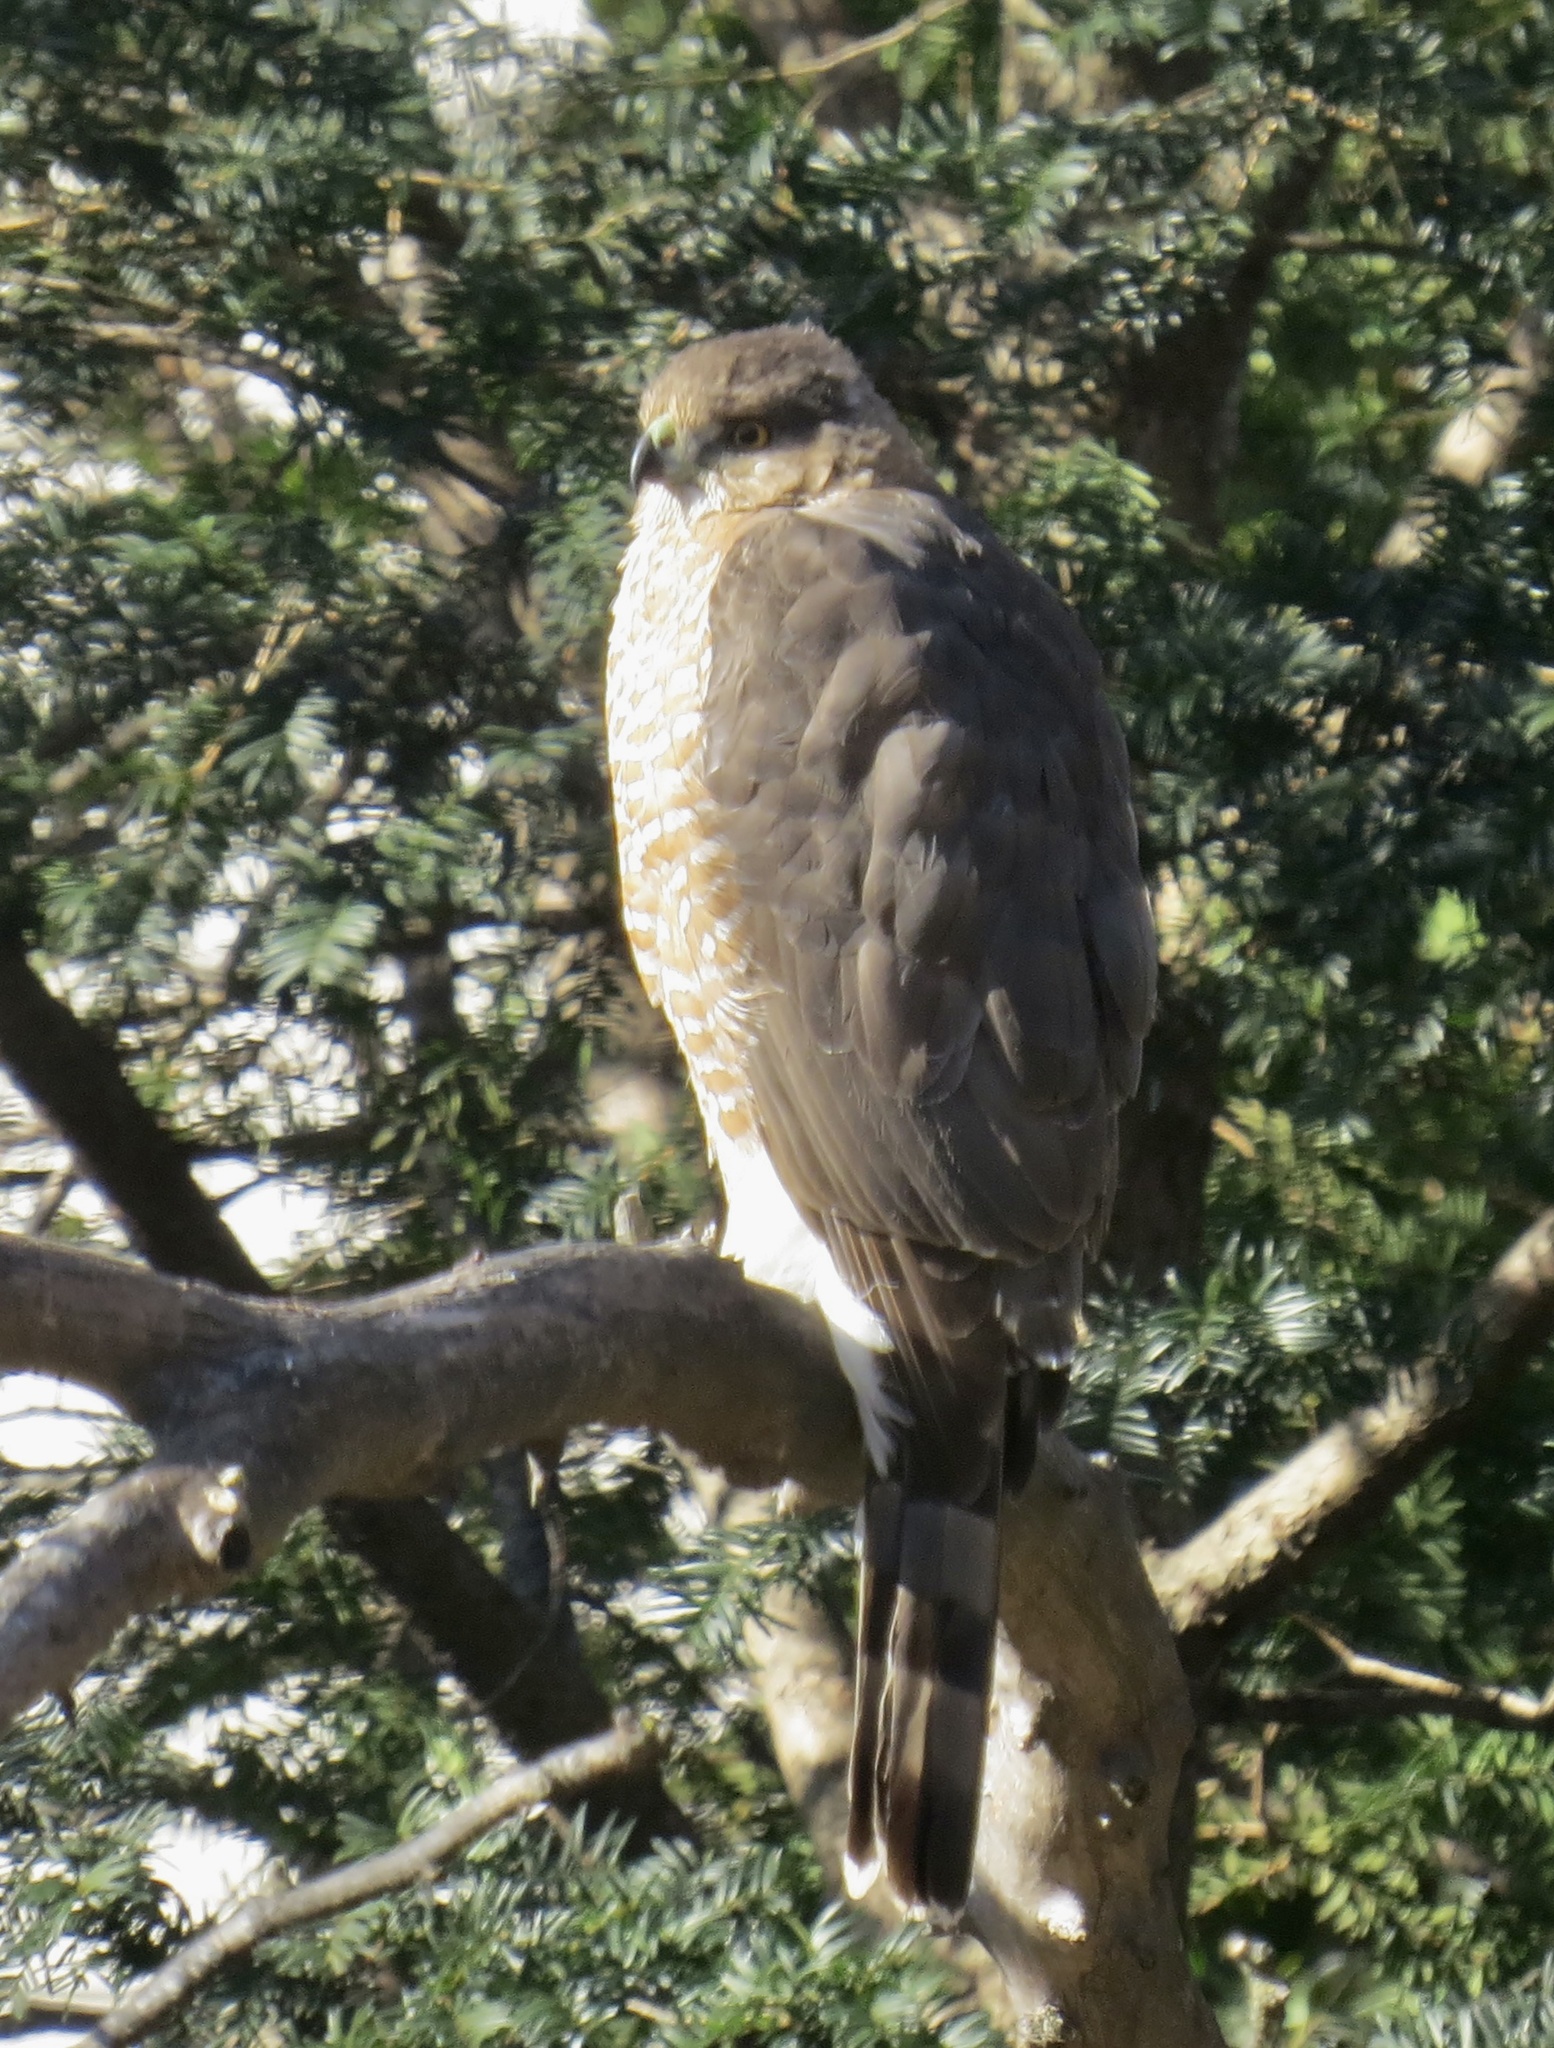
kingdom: Animalia
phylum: Chordata
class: Aves
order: Accipitriformes
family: Accipitridae
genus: Accipiter
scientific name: Accipiter cooperii
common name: Cooper's hawk
